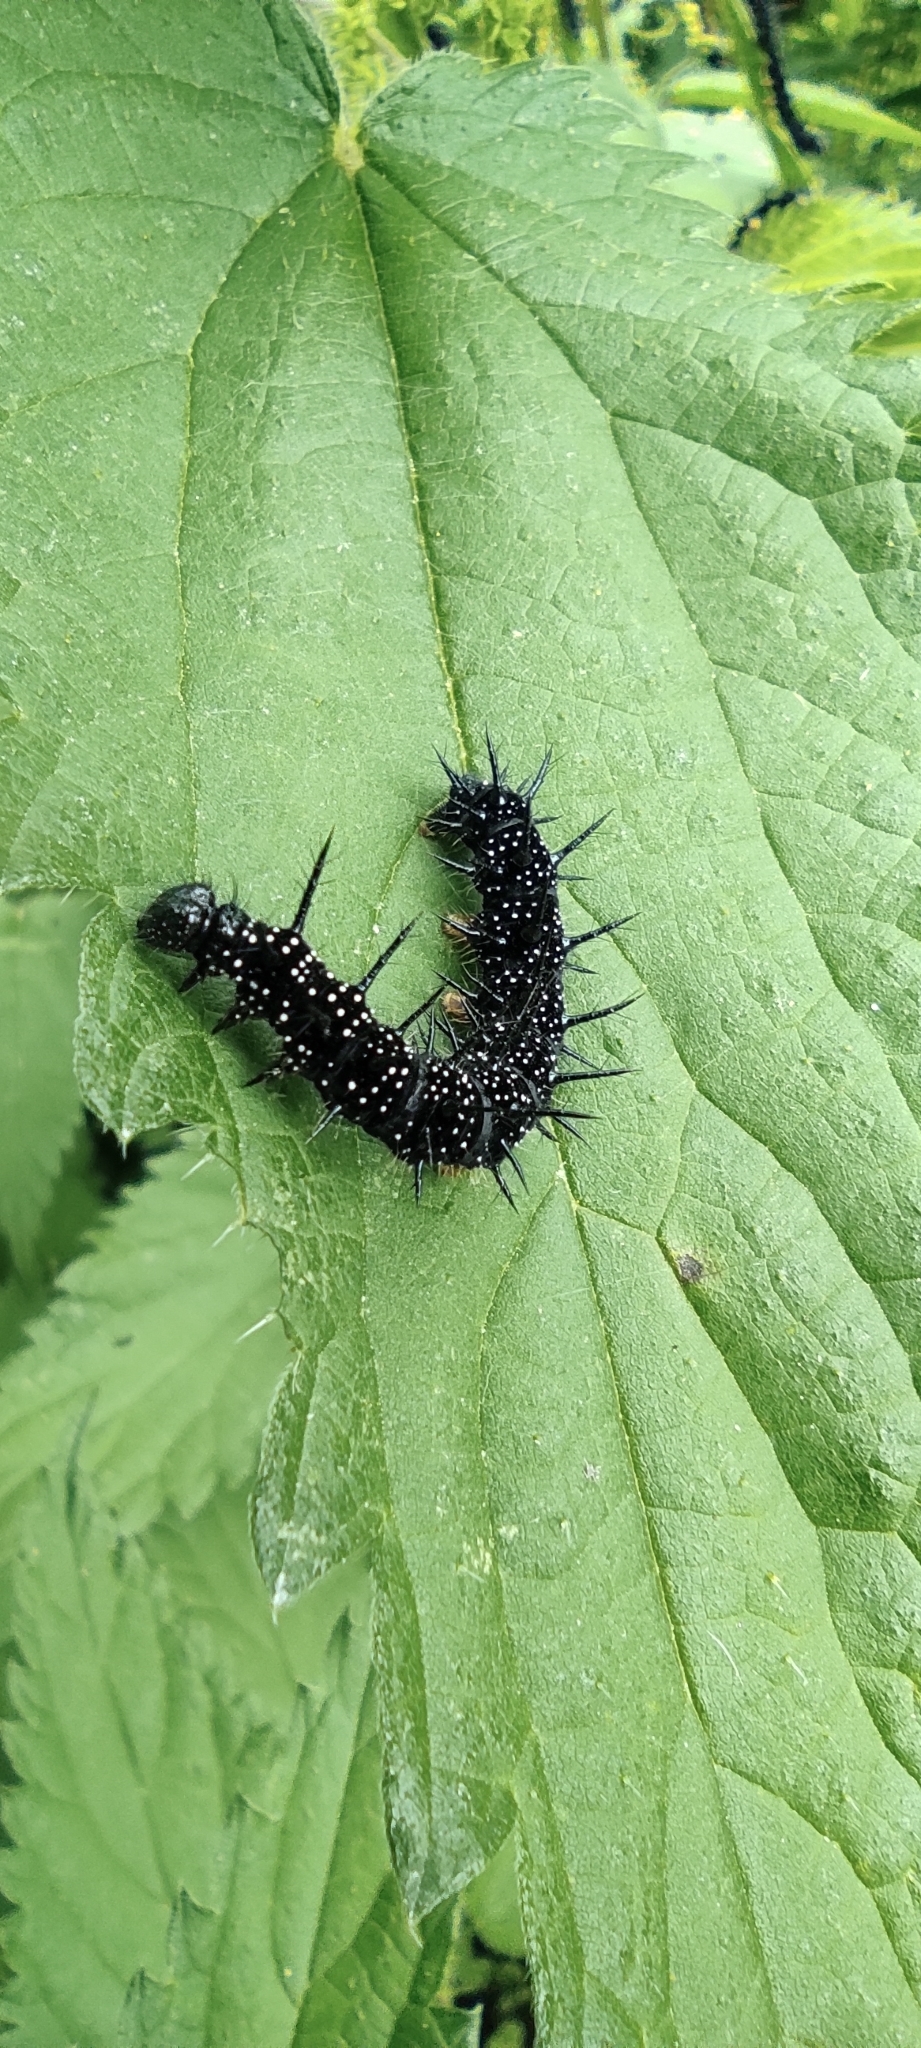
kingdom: Animalia
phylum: Arthropoda
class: Insecta
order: Lepidoptera
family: Nymphalidae
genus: Aglais
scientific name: Aglais io
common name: Peacock
